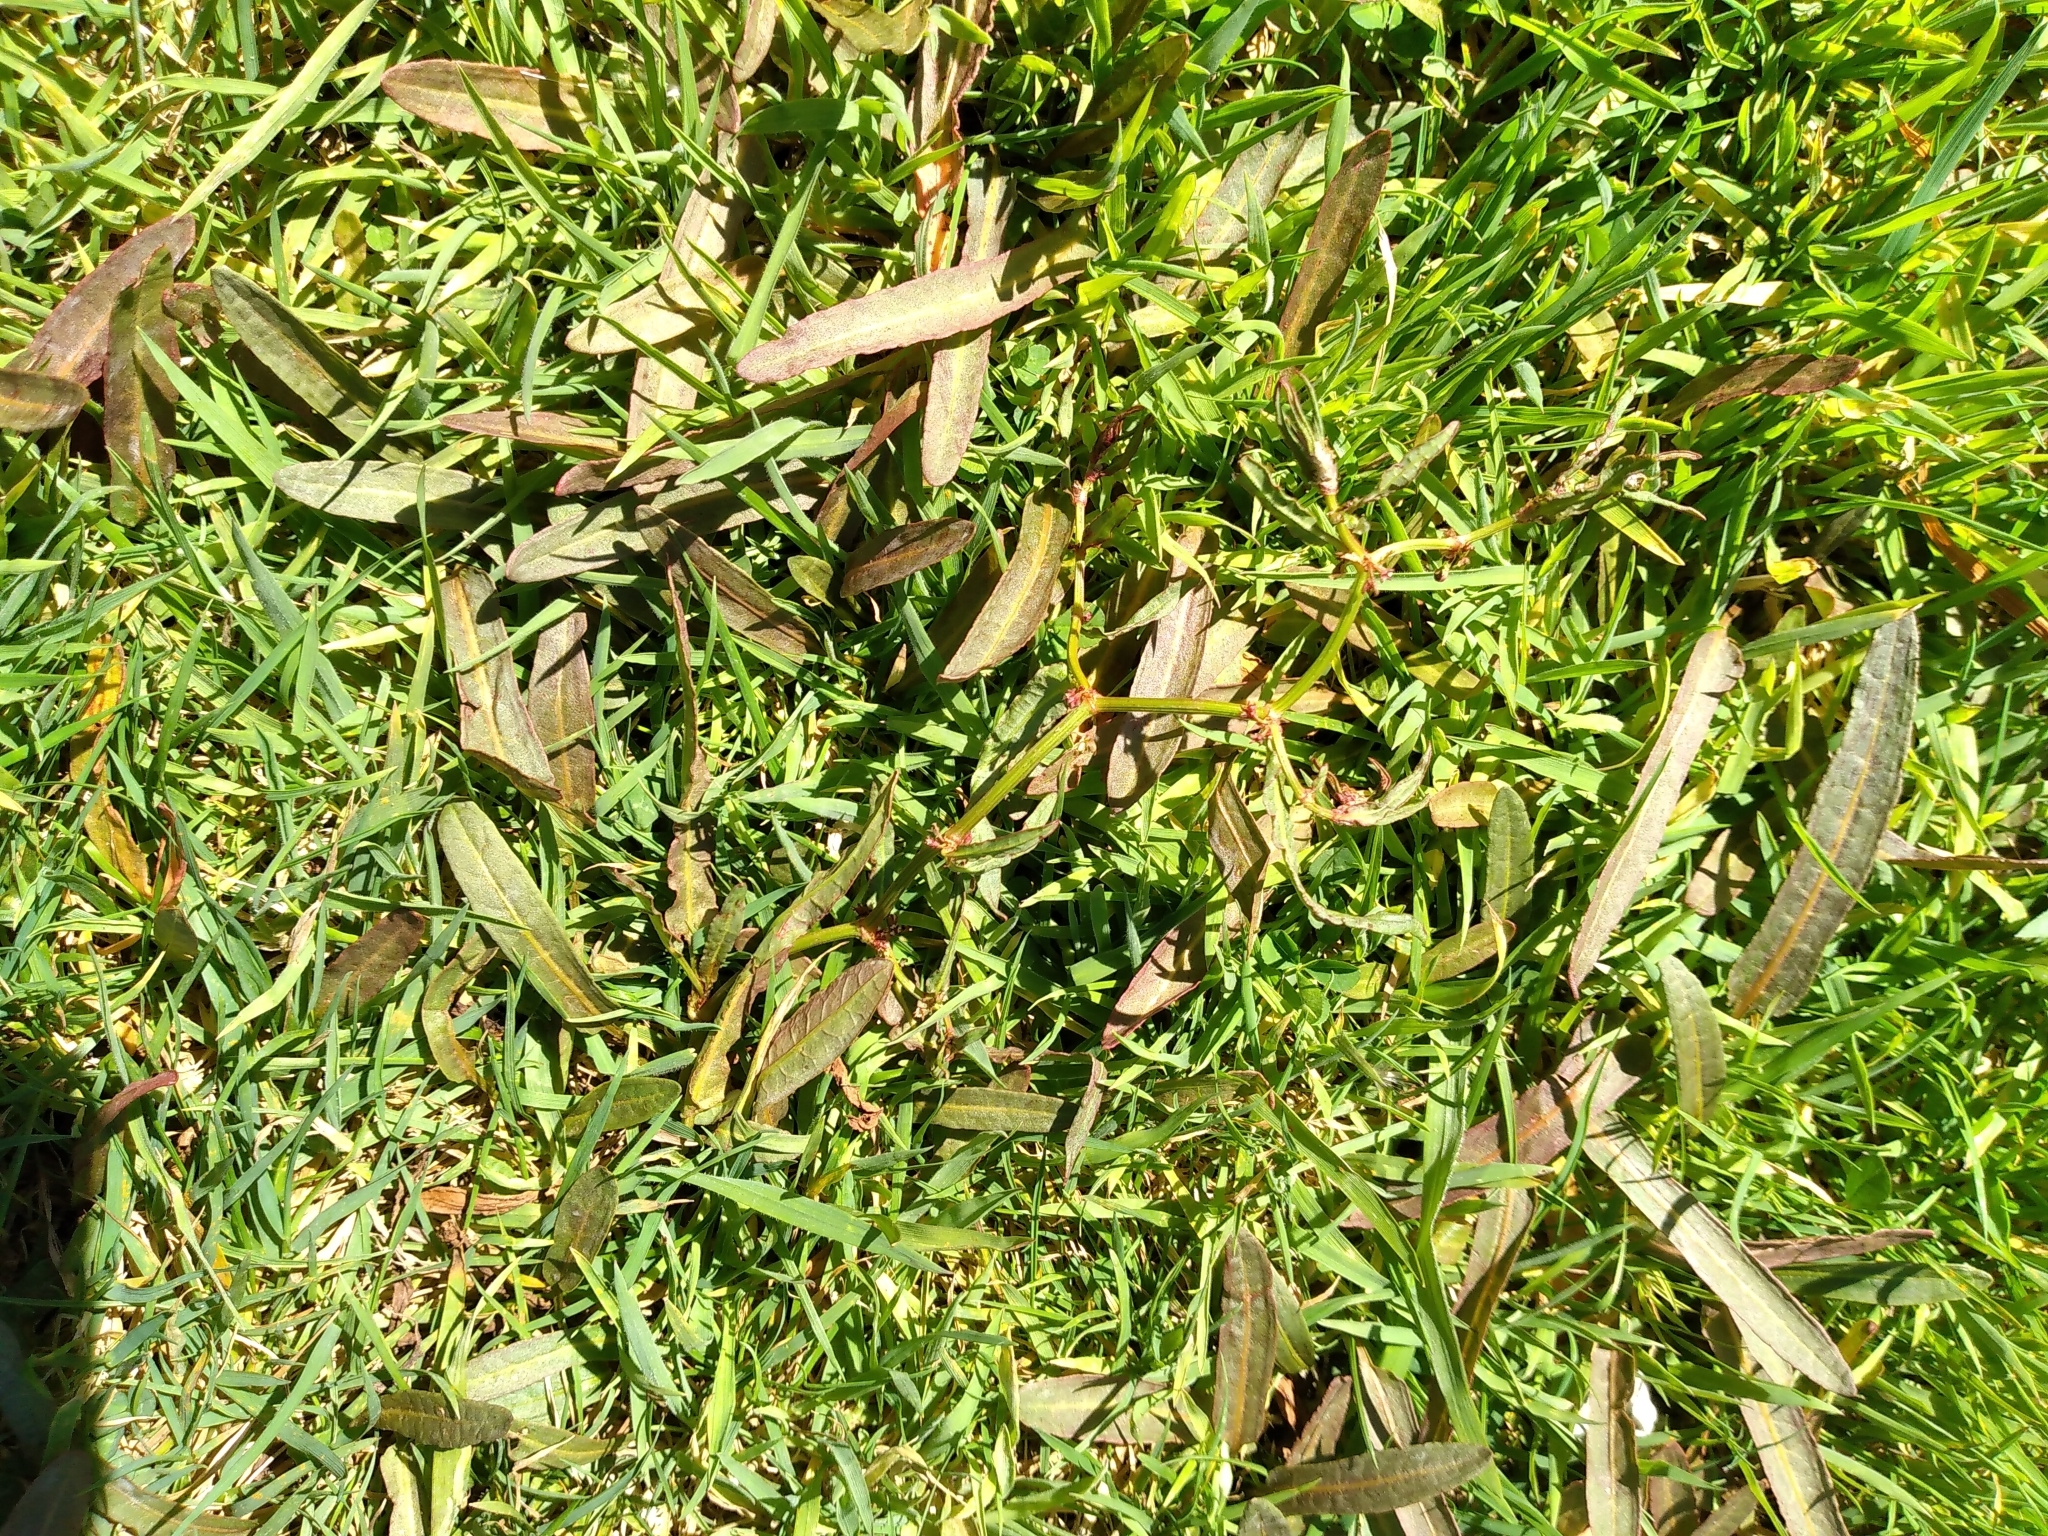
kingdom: Plantae
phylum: Tracheophyta
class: Magnoliopsida
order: Caryophyllales
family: Polygonaceae
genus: Rumex
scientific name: Rumex flexuosus
